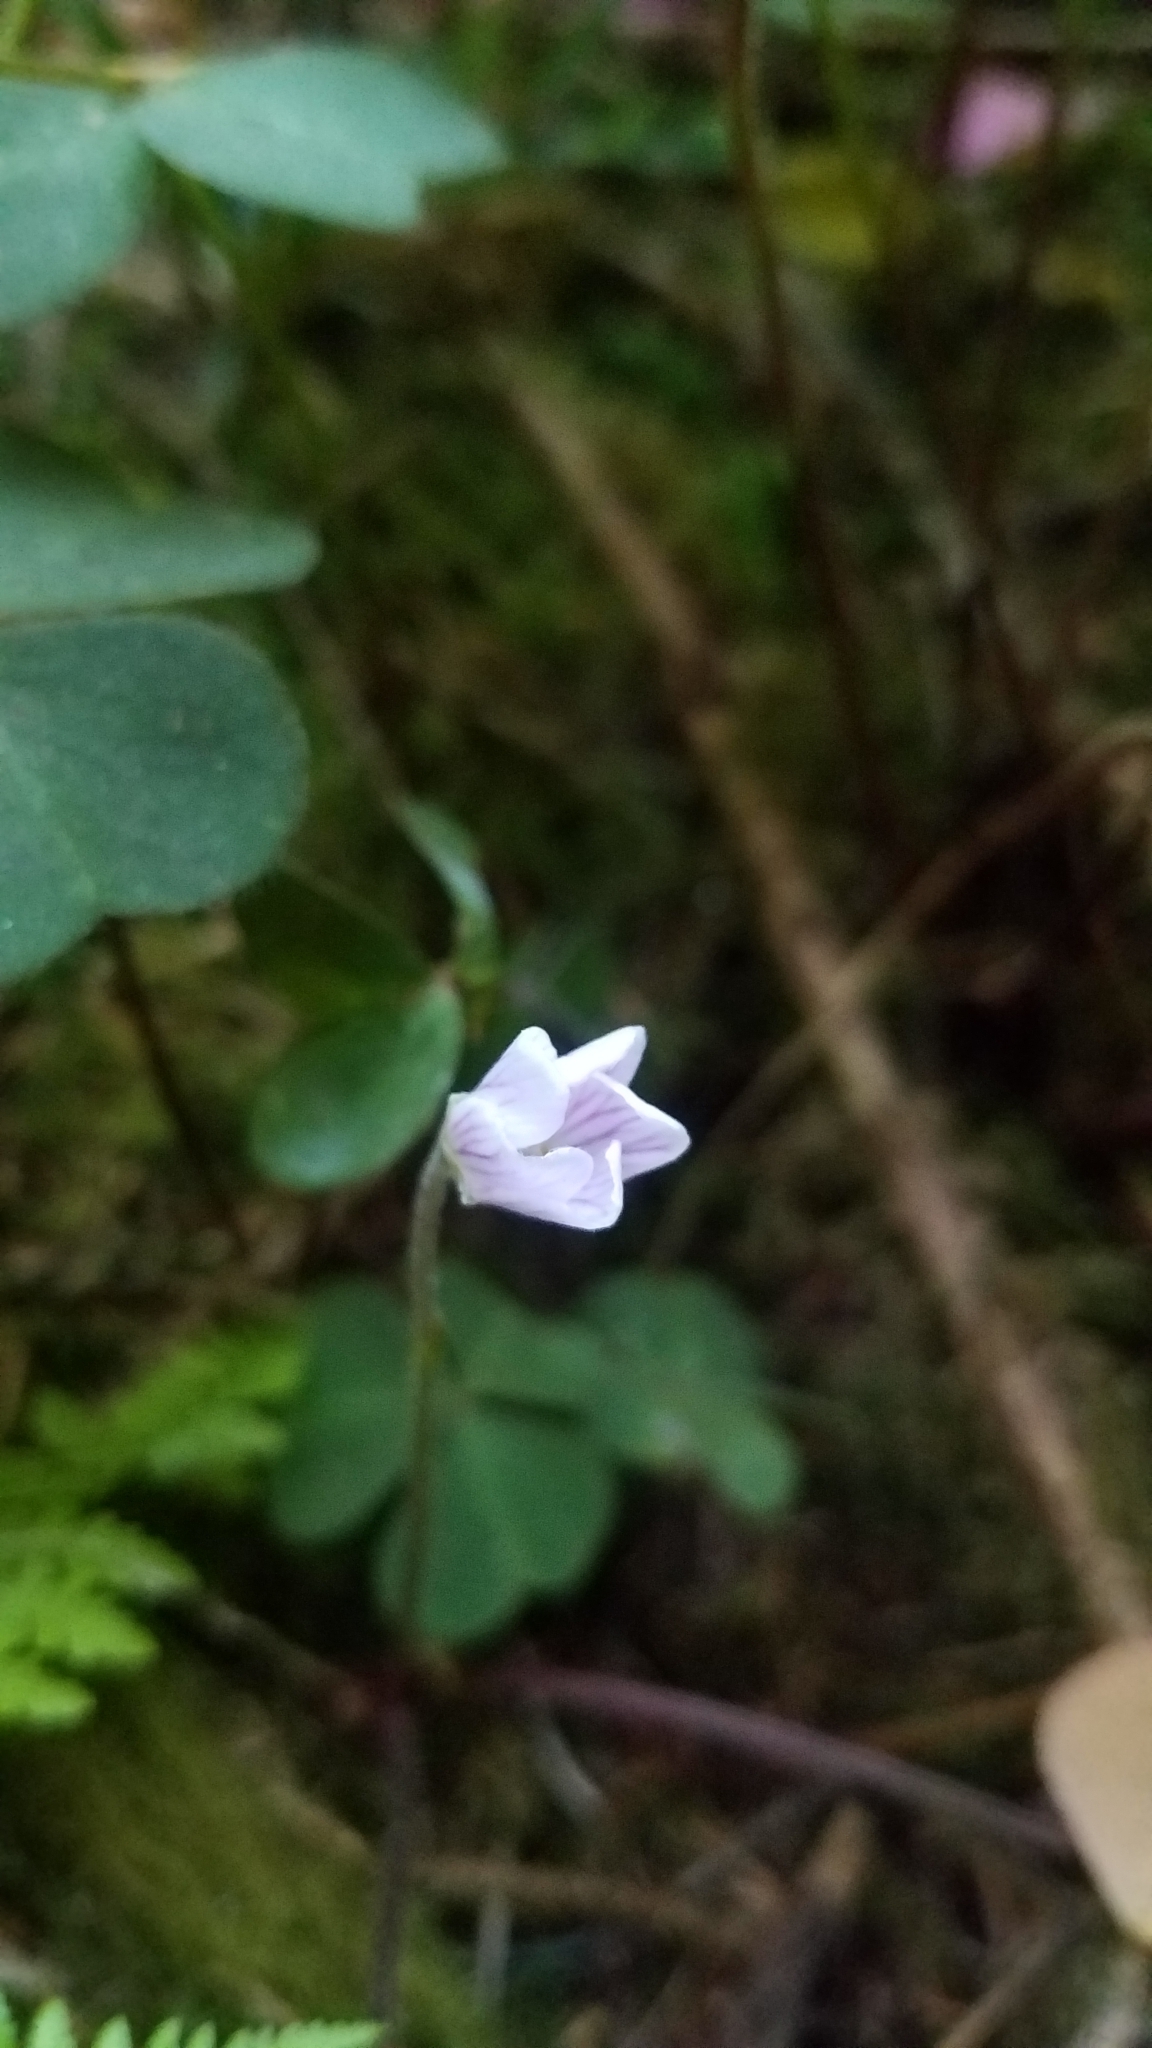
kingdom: Plantae
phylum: Tracheophyta
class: Magnoliopsida
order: Oxalidales
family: Oxalidaceae
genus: Oxalis
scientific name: Oxalis oregana
